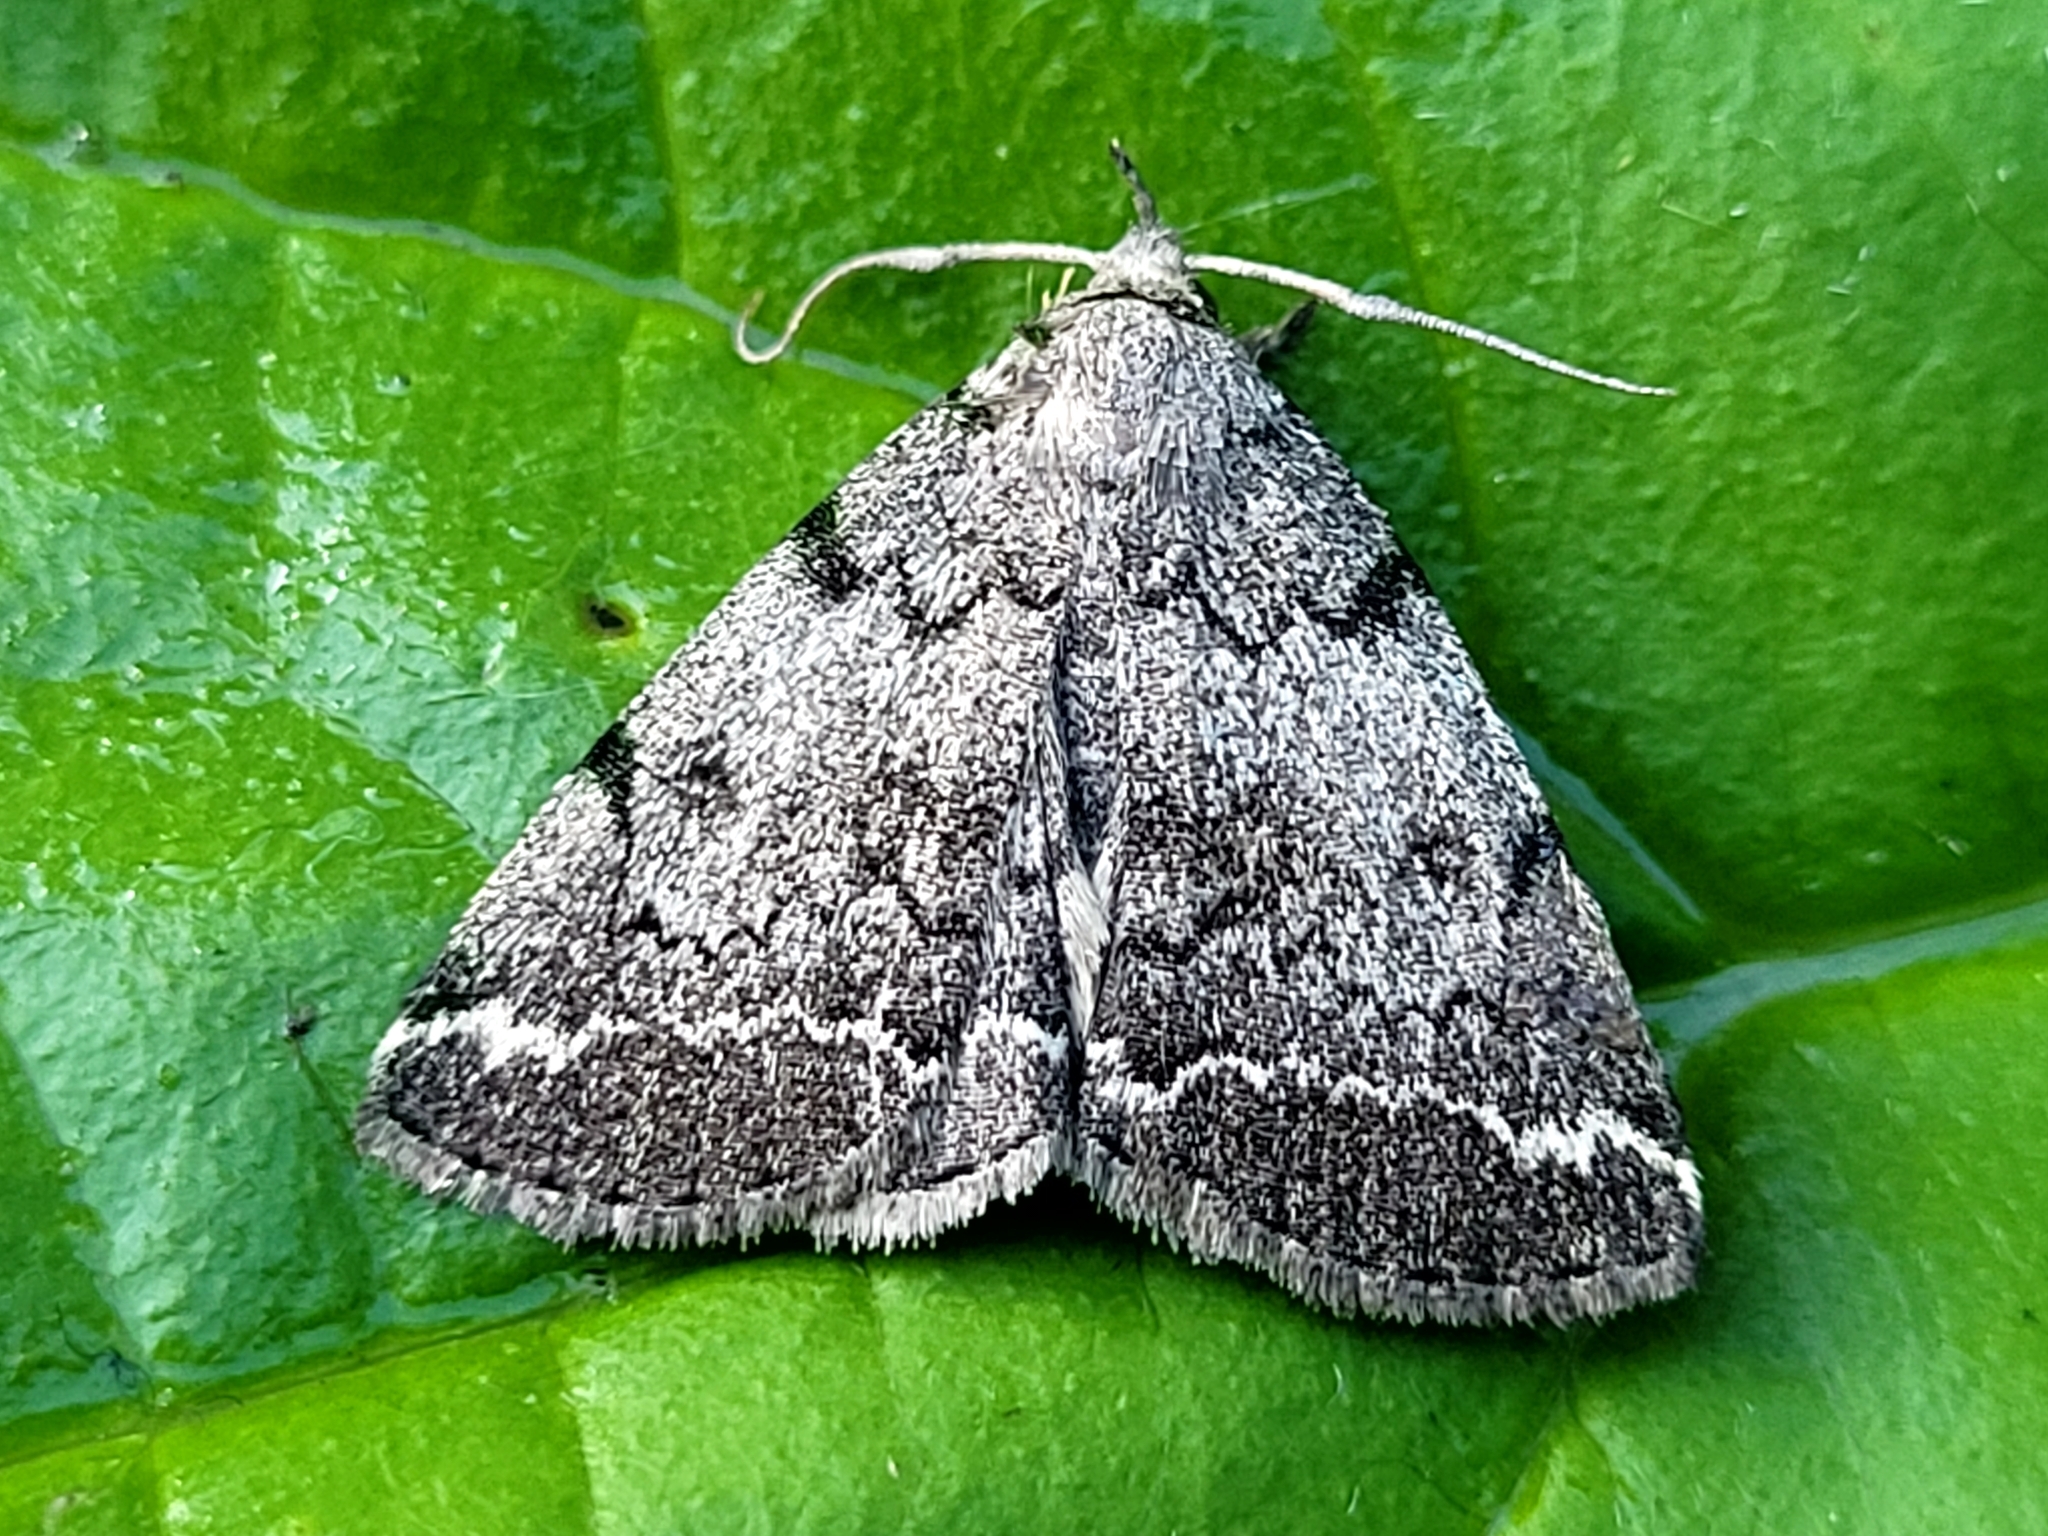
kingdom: Animalia
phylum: Arthropoda
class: Insecta
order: Lepidoptera
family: Erebidae
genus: Zanclognatha
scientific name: Zanclognatha theralis
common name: Flagged fan-foot
